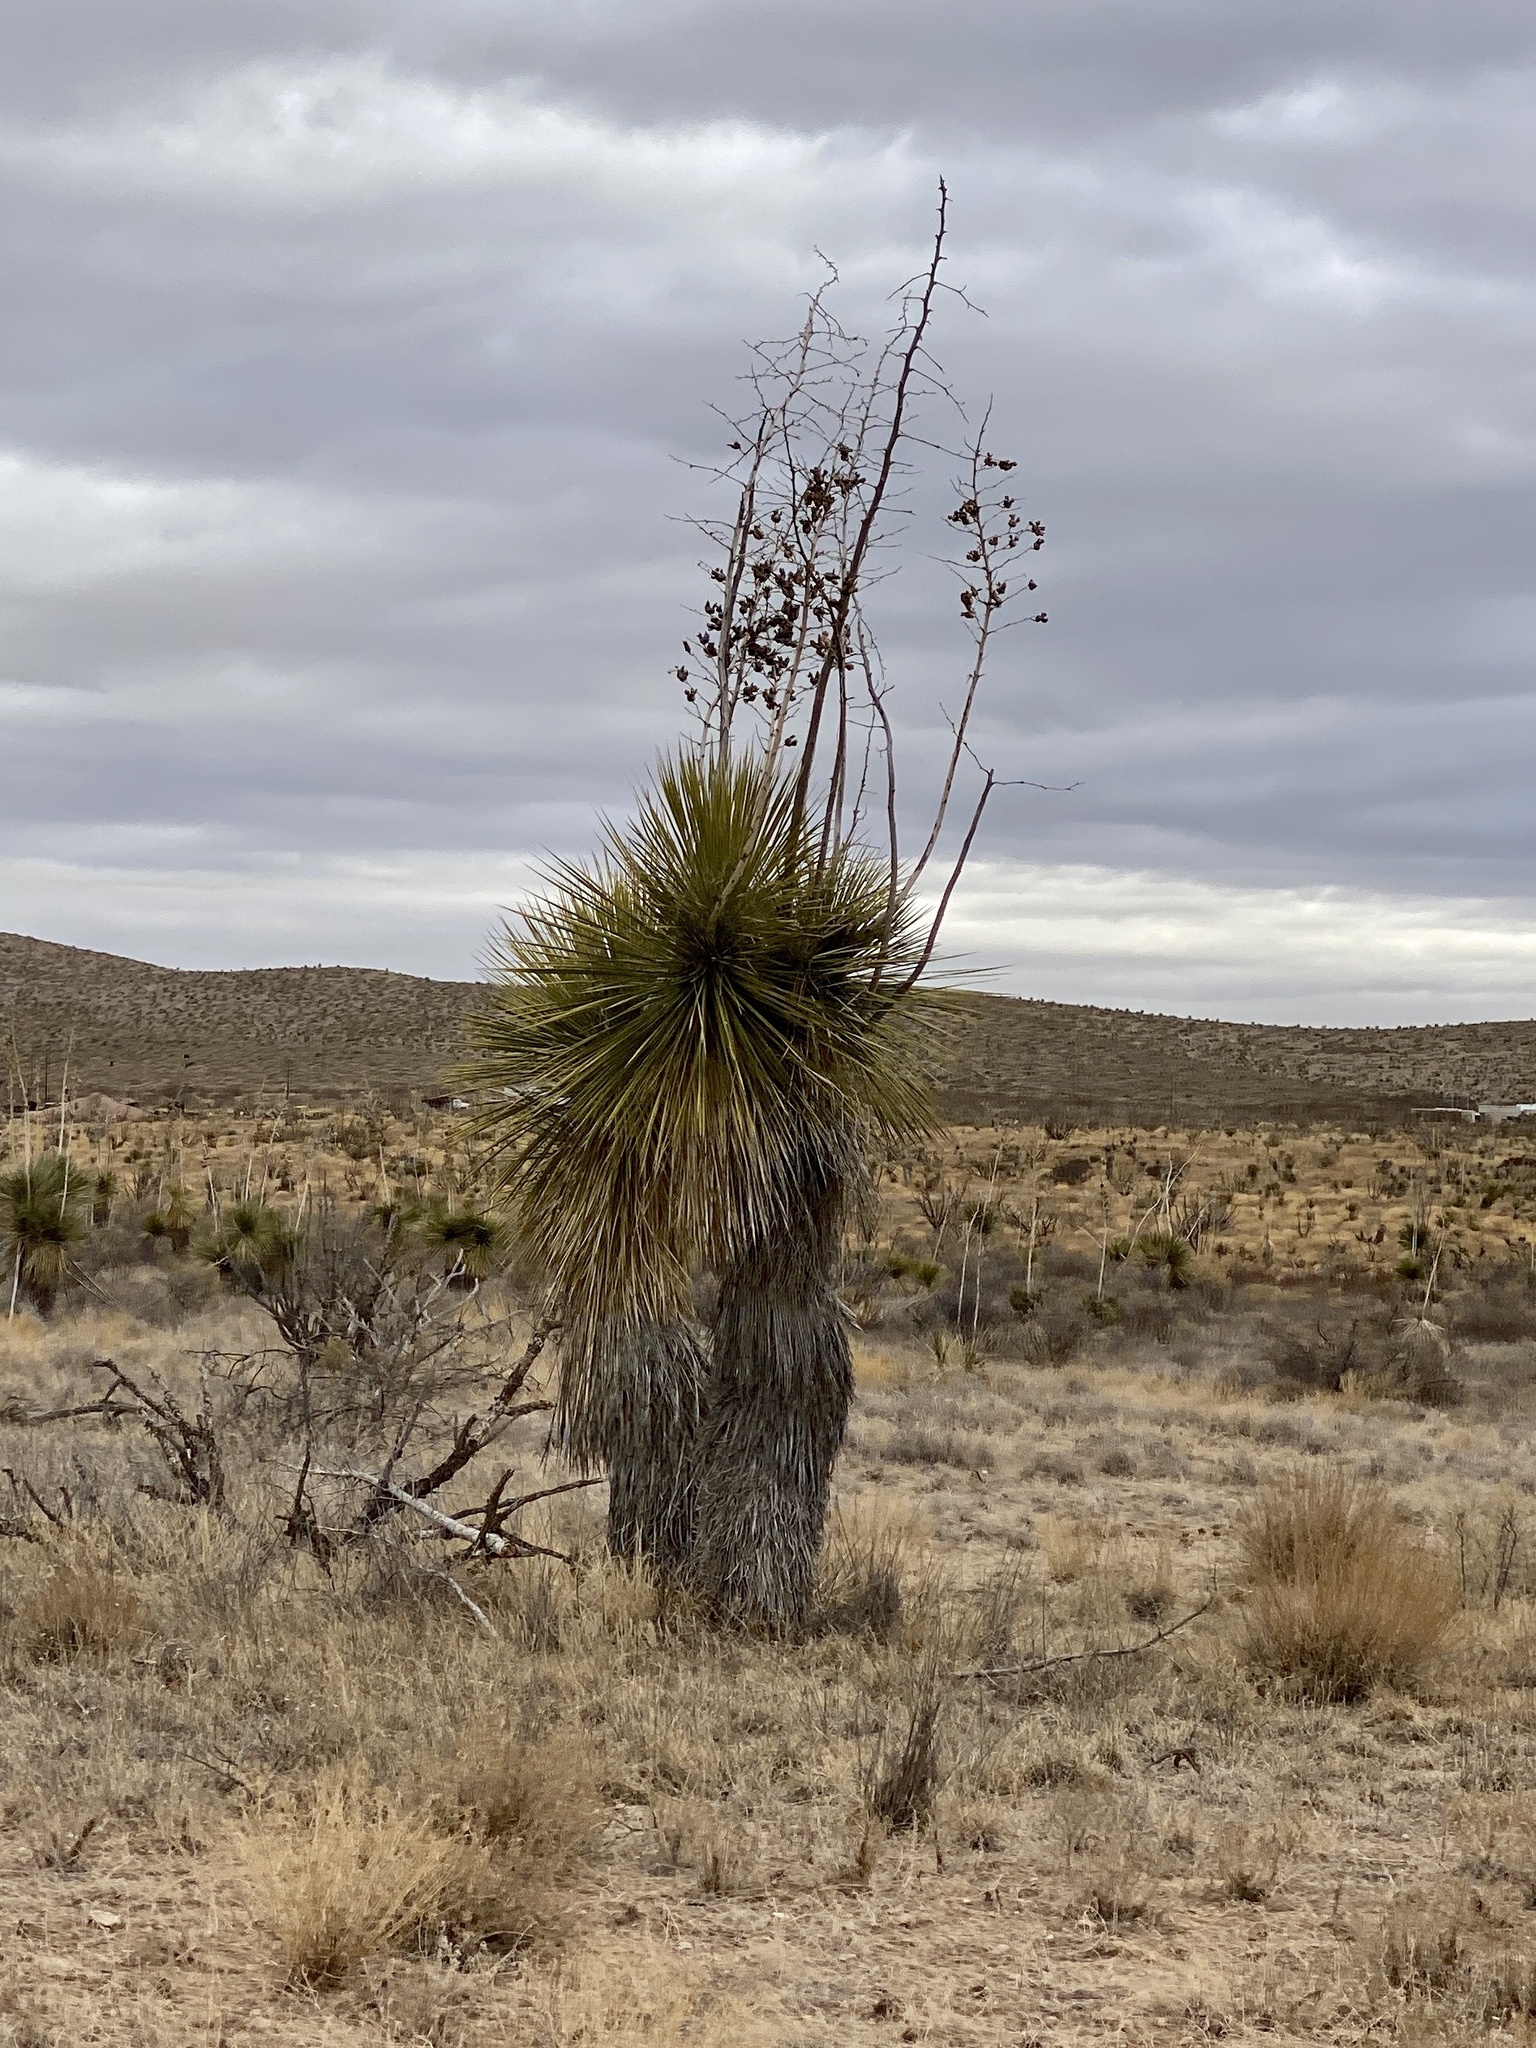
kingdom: Plantae
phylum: Tracheophyta
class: Liliopsida
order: Asparagales
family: Asparagaceae
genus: Yucca
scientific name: Yucca elata
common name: Palmella
